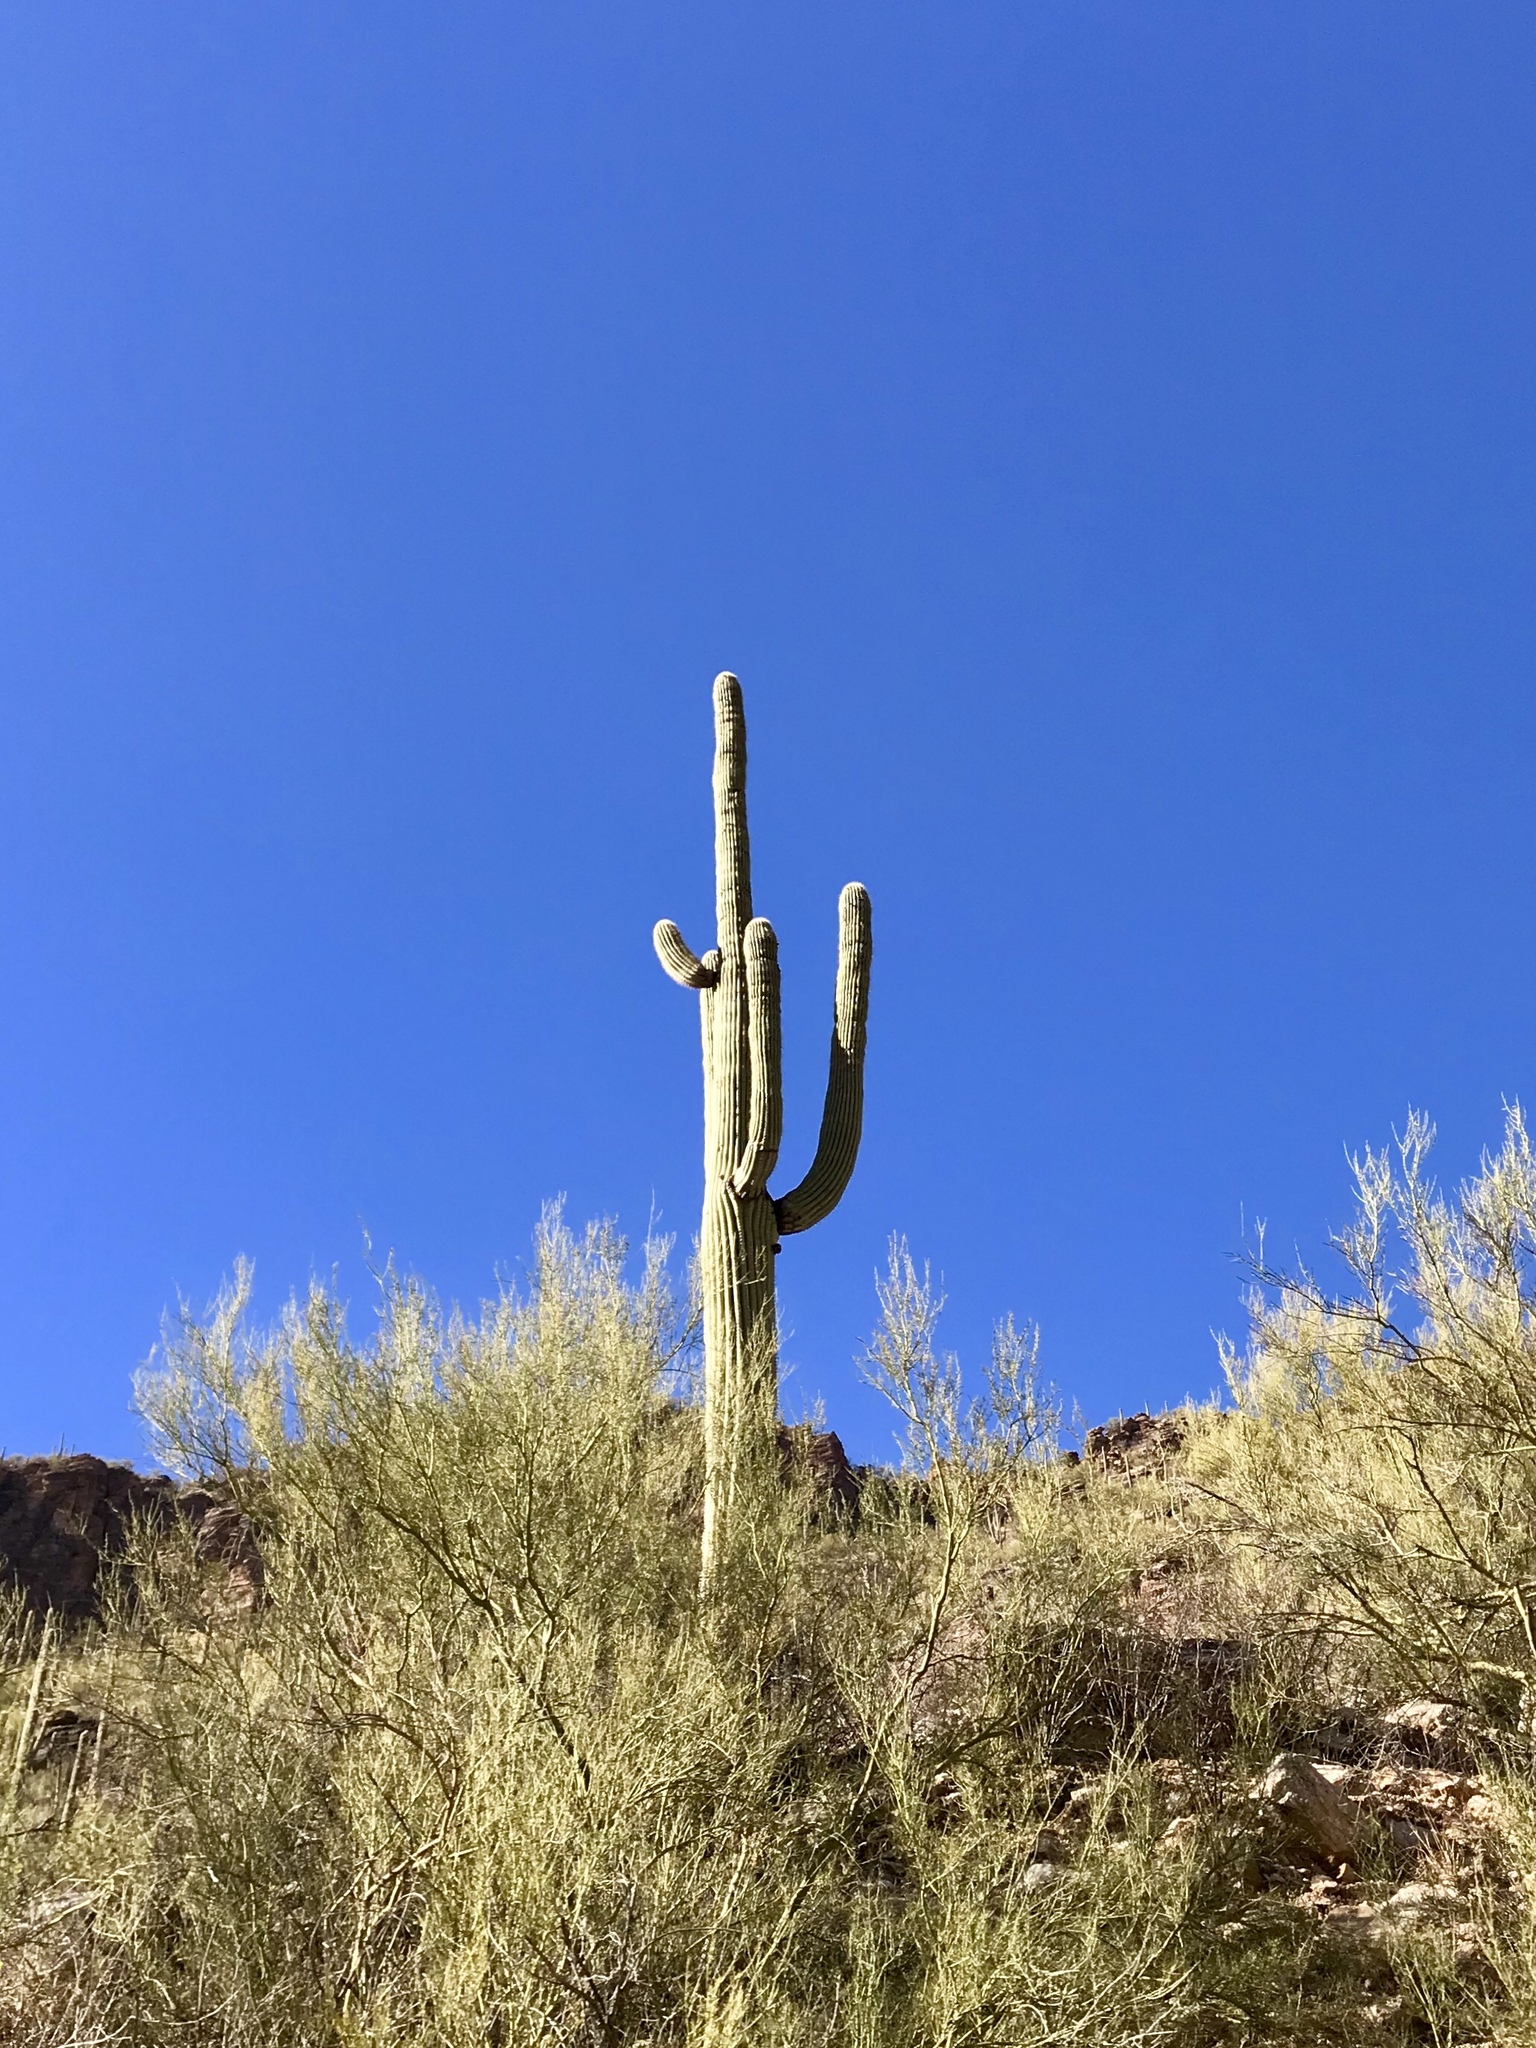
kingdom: Plantae
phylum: Tracheophyta
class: Magnoliopsida
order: Caryophyllales
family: Cactaceae
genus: Carnegiea
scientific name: Carnegiea gigantea
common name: Saguaro
